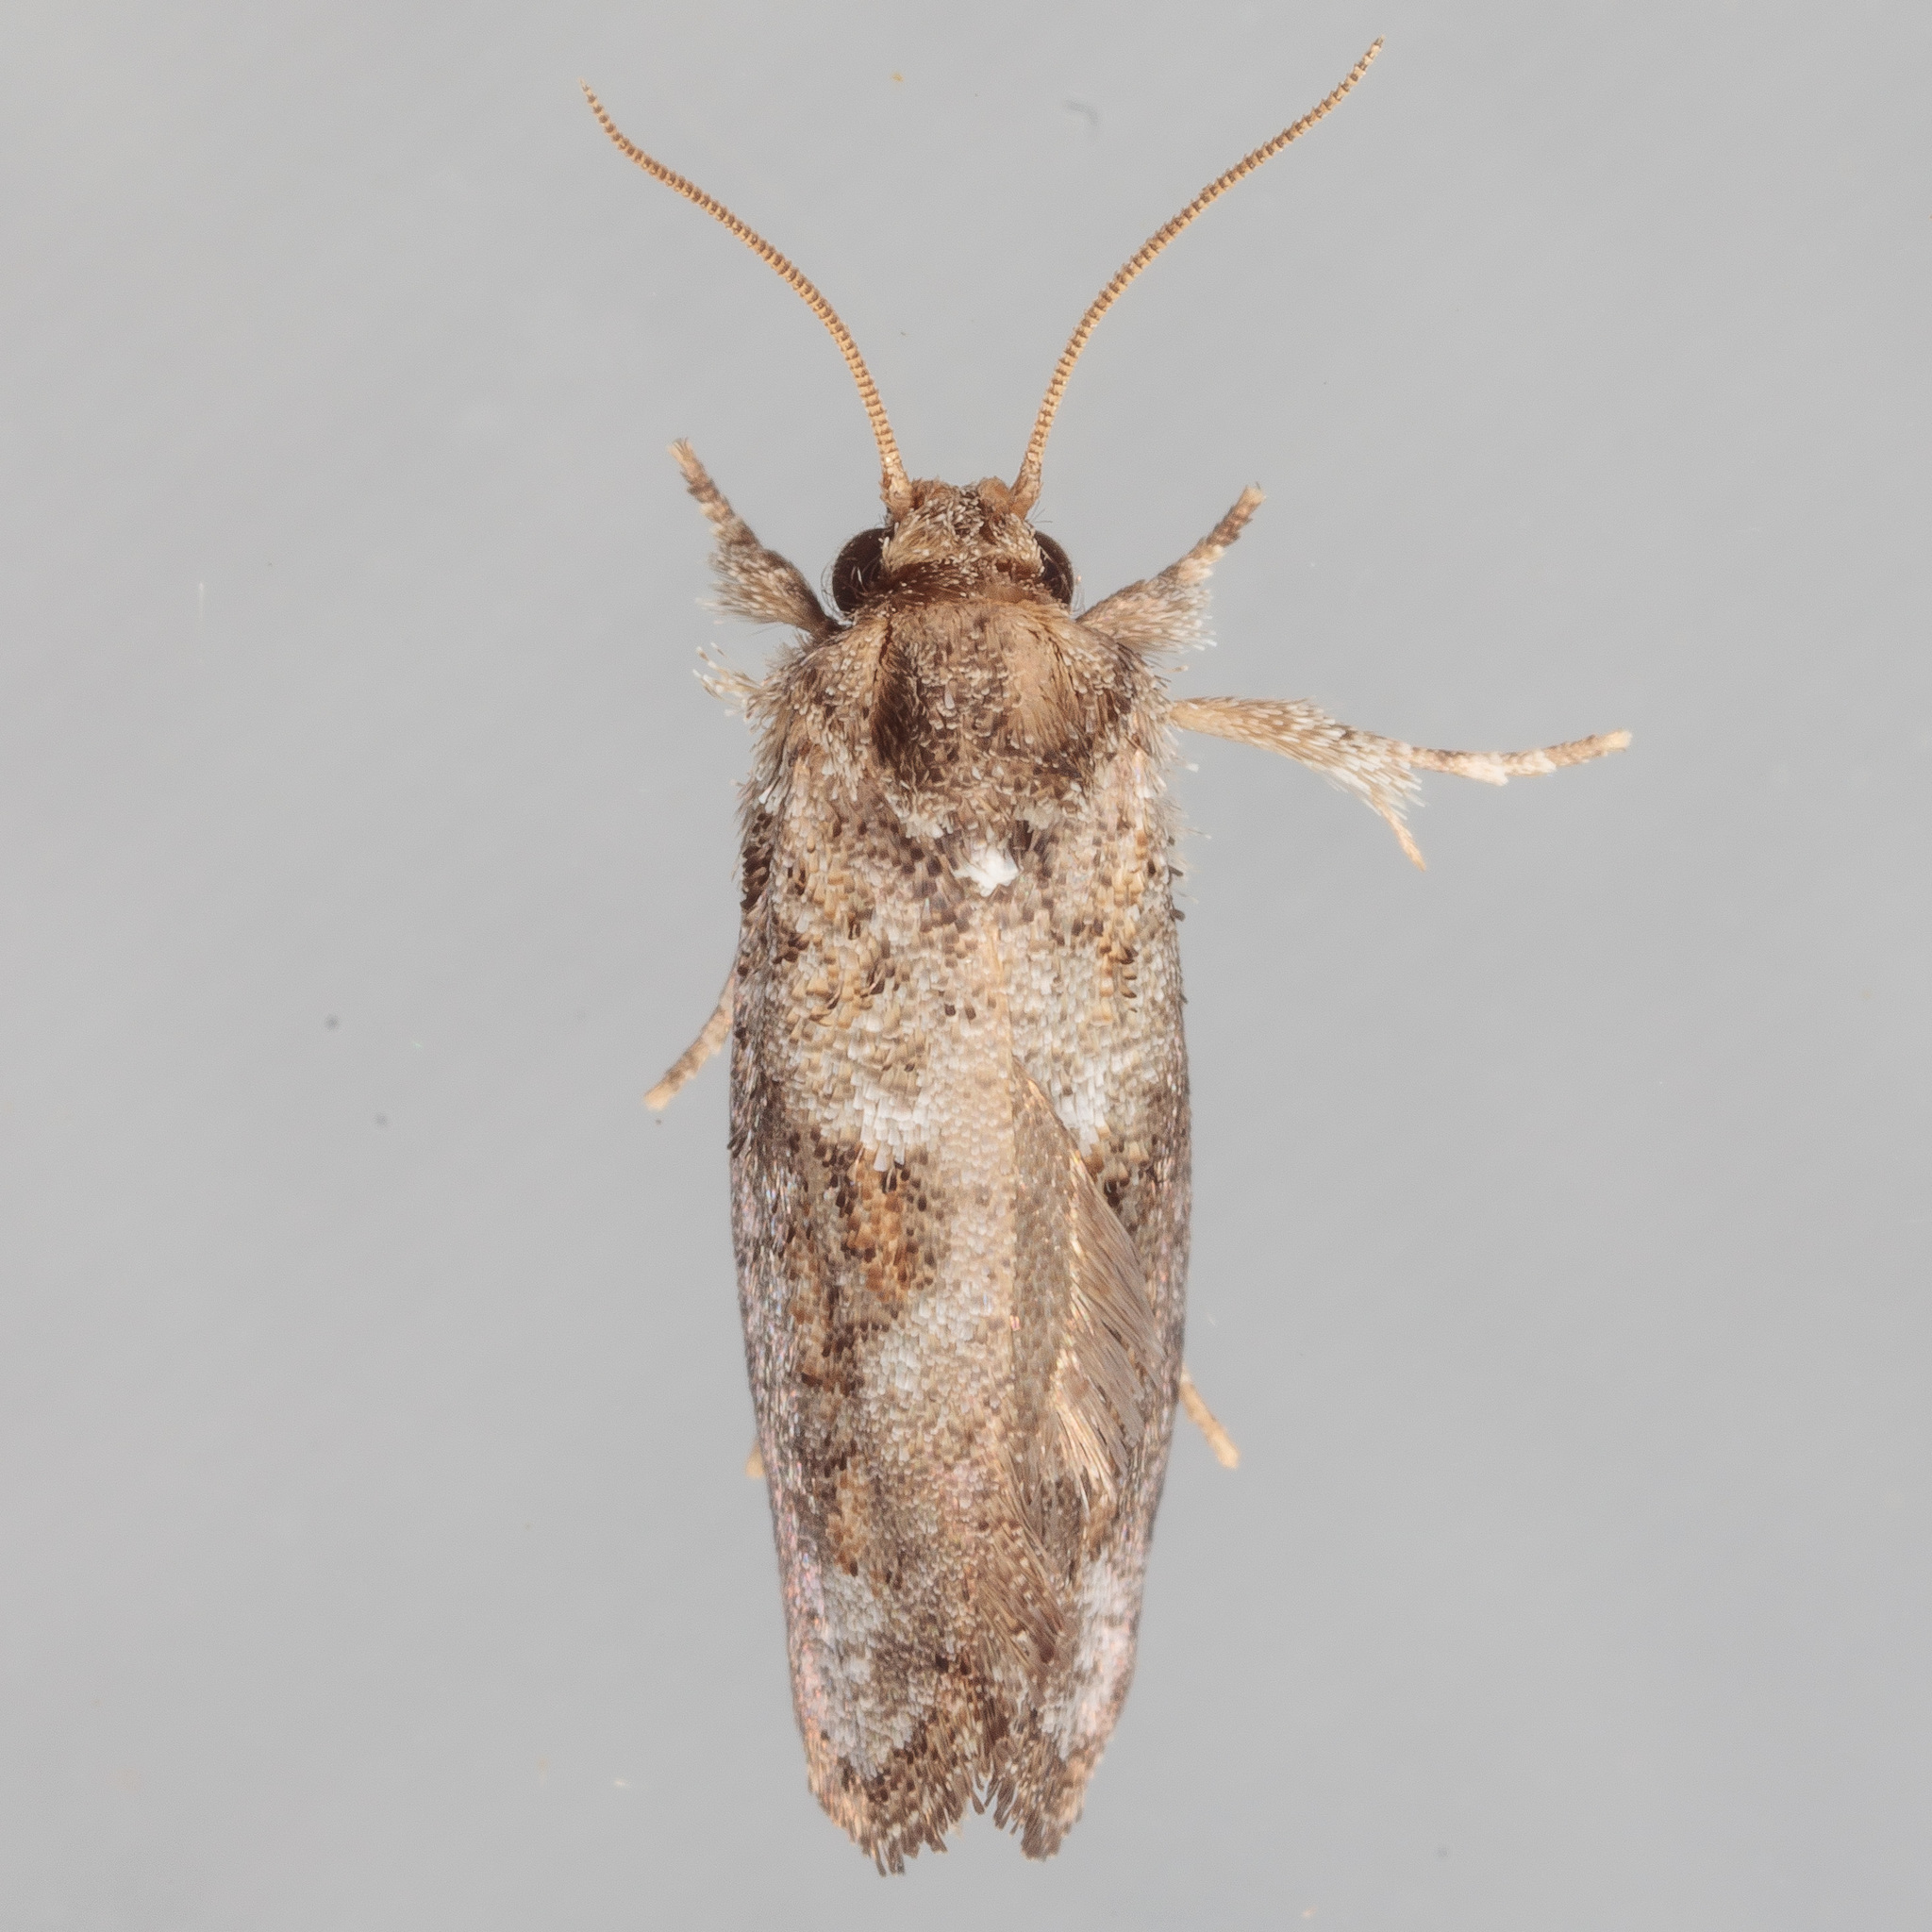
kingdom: Animalia
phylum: Arthropoda
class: Insecta
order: Lepidoptera
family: Tineidae
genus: Acrolophus
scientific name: Acrolophus piger
